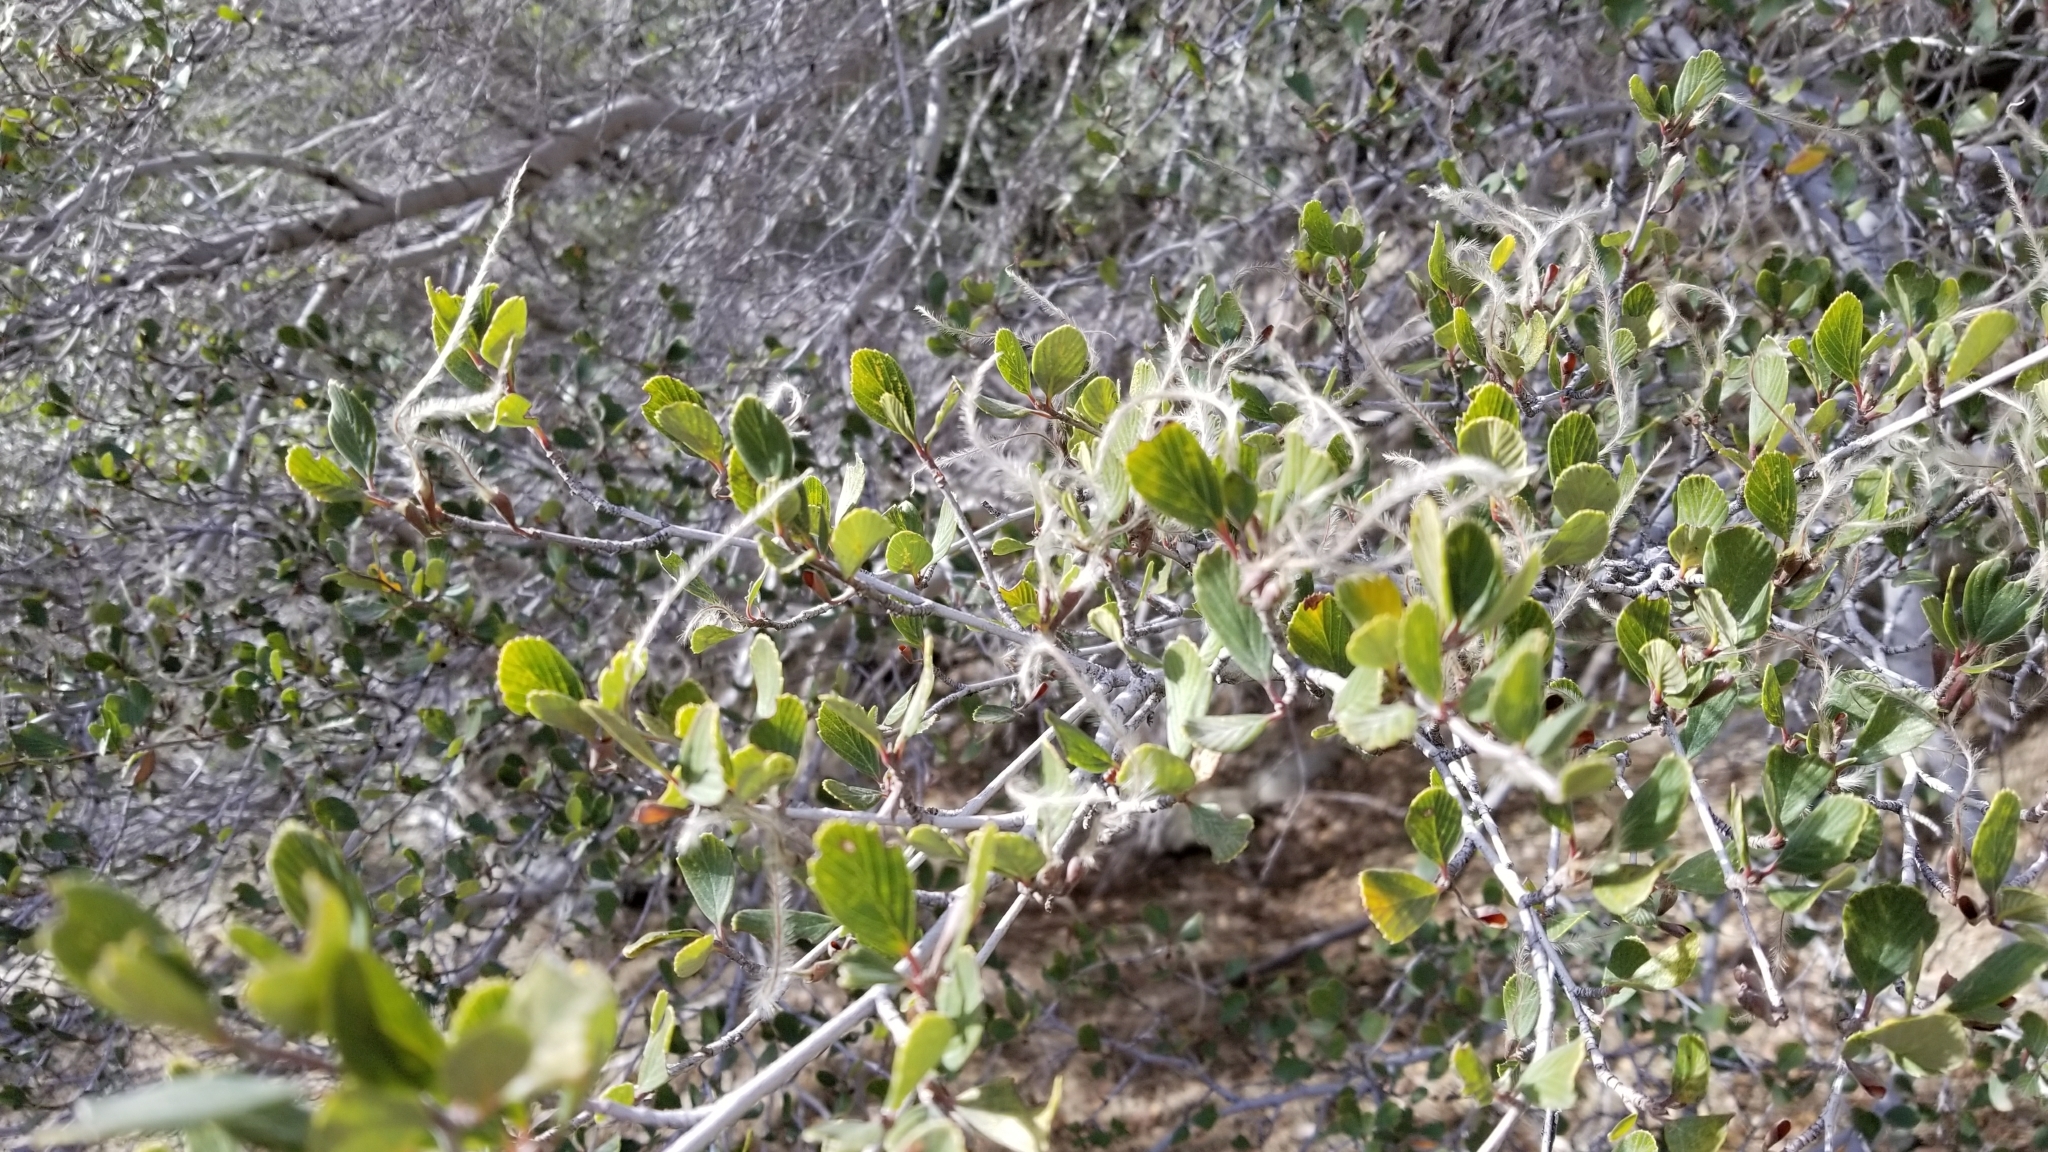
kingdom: Plantae
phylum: Tracheophyta
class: Magnoliopsida
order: Rosales
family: Rosaceae
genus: Cercocarpus
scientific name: Cercocarpus betuloides
